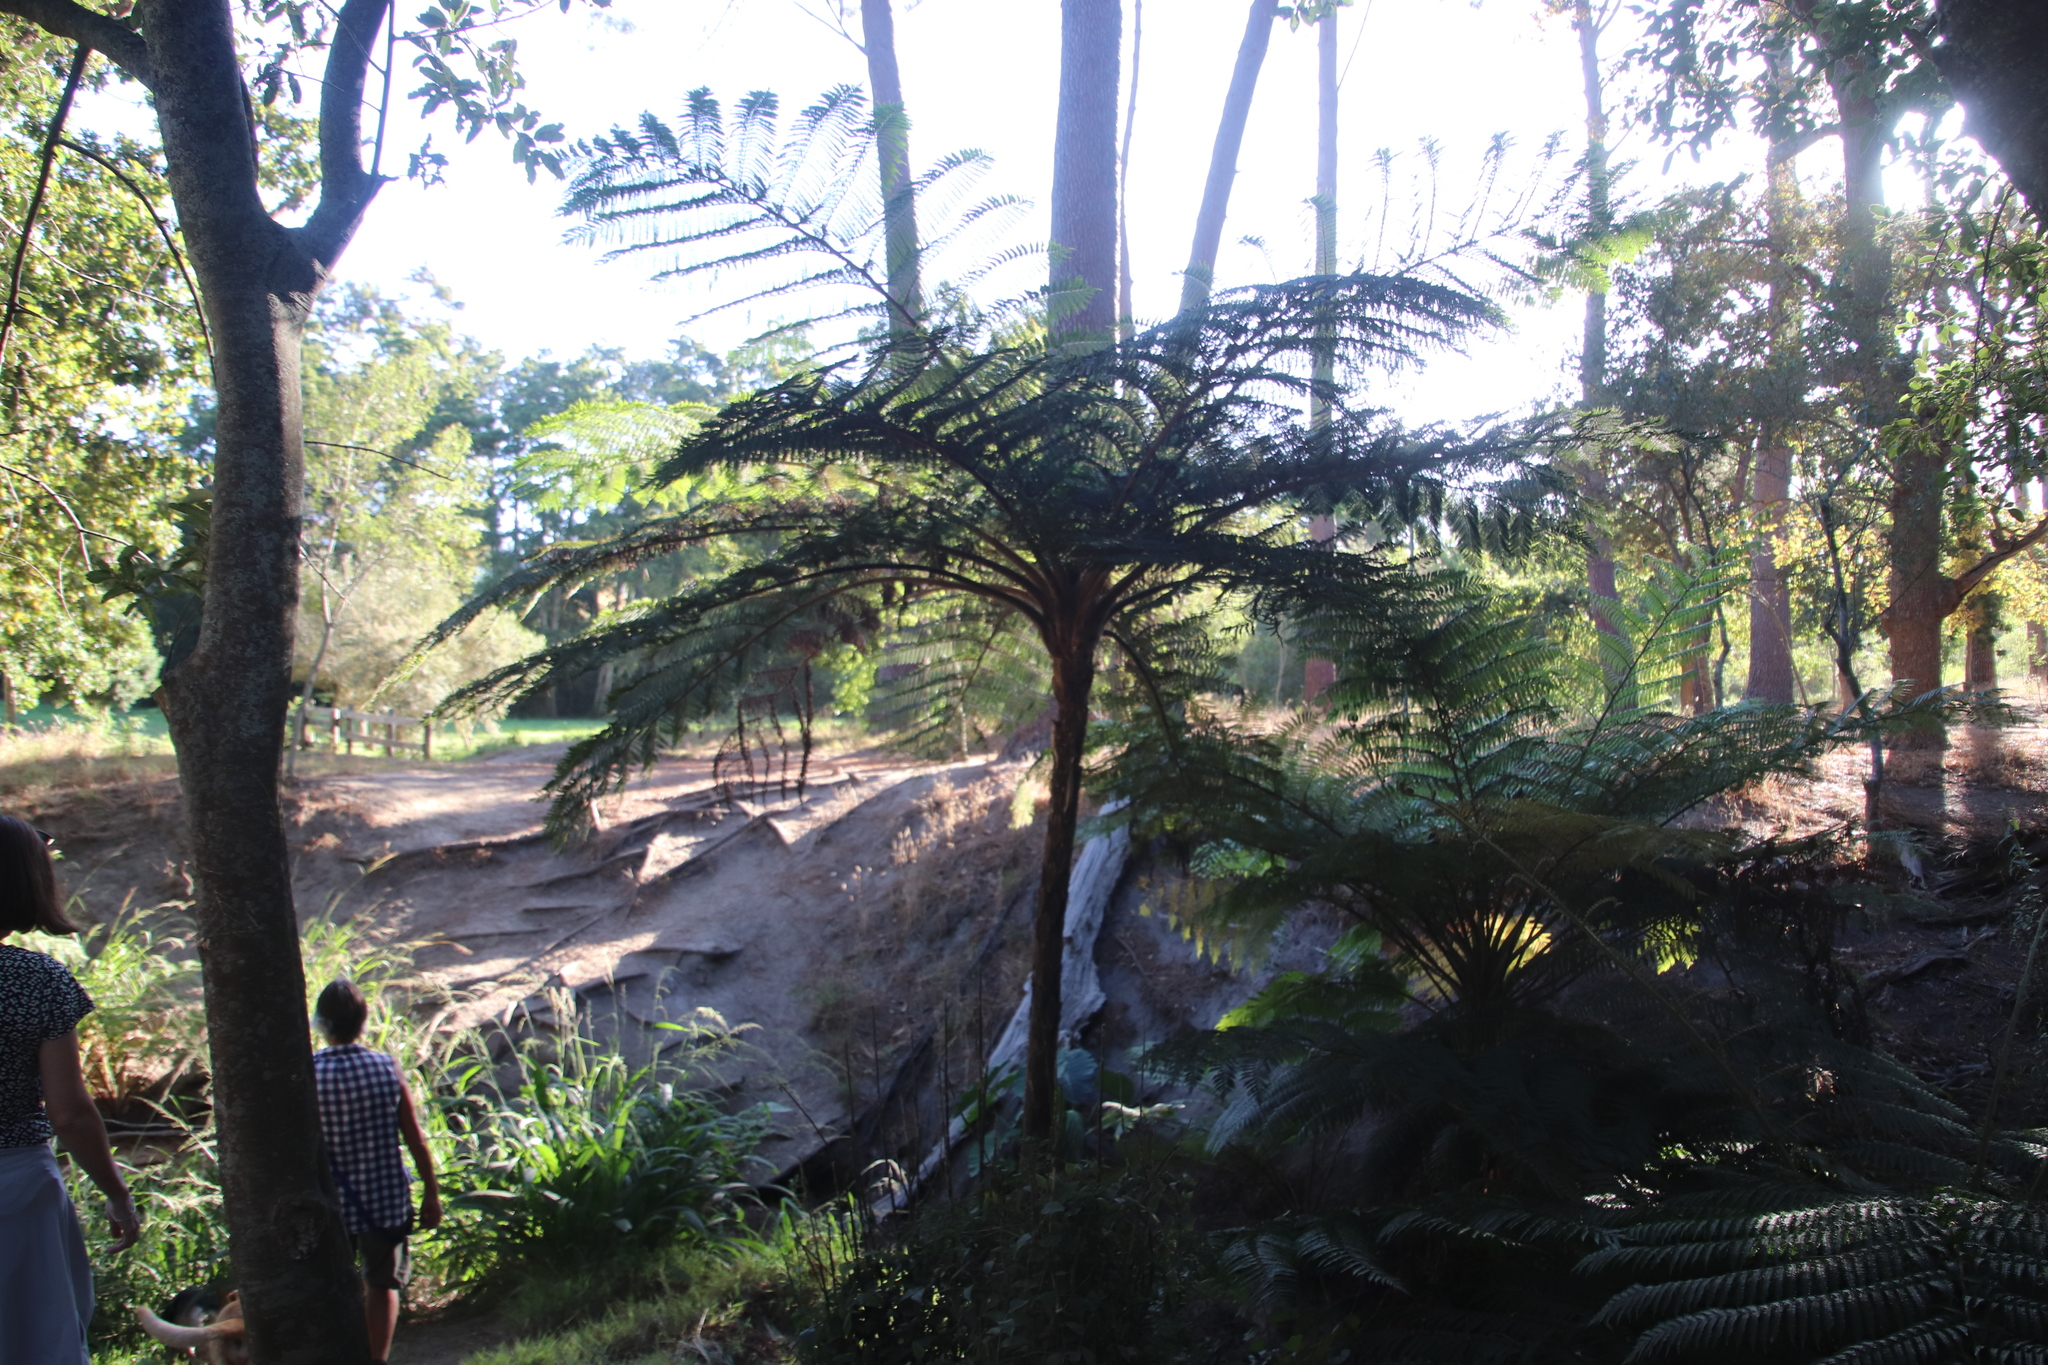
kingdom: Plantae
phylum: Tracheophyta
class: Polypodiopsida
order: Cyatheales
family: Cyatheaceae
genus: Sphaeropteris
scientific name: Sphaeropteris cooperi
